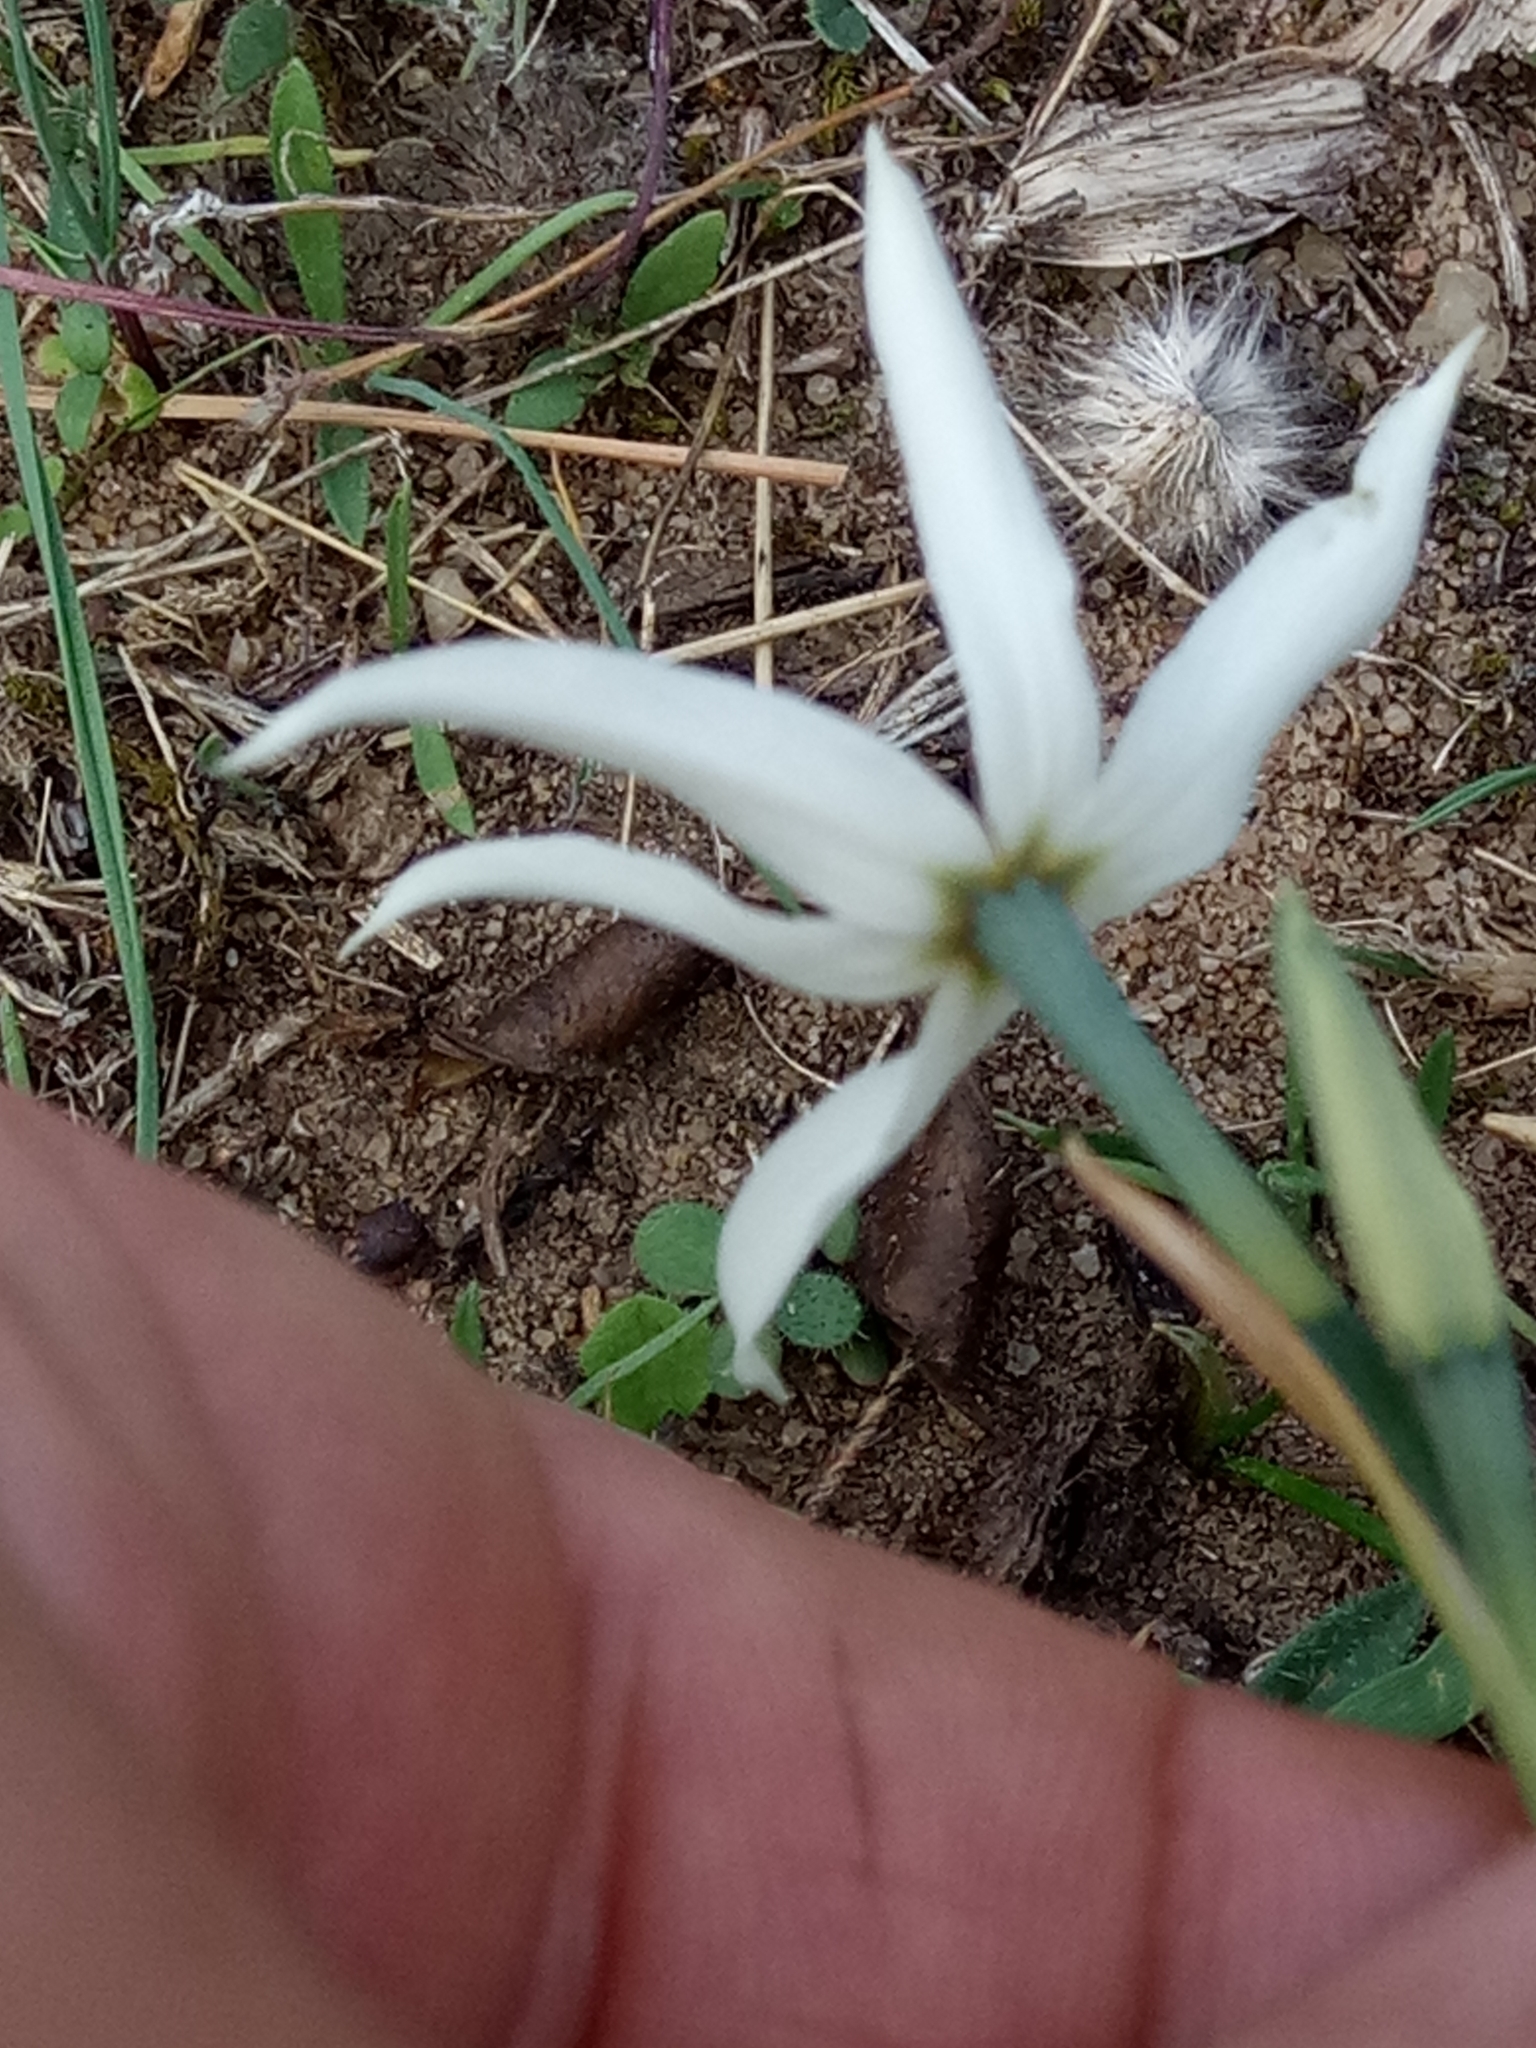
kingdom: Plantae
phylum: Tracheophyta
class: Liliopsida
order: Asparagales
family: Amaryllidaceae
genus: Narcissus
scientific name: Narcissus obsoletus
